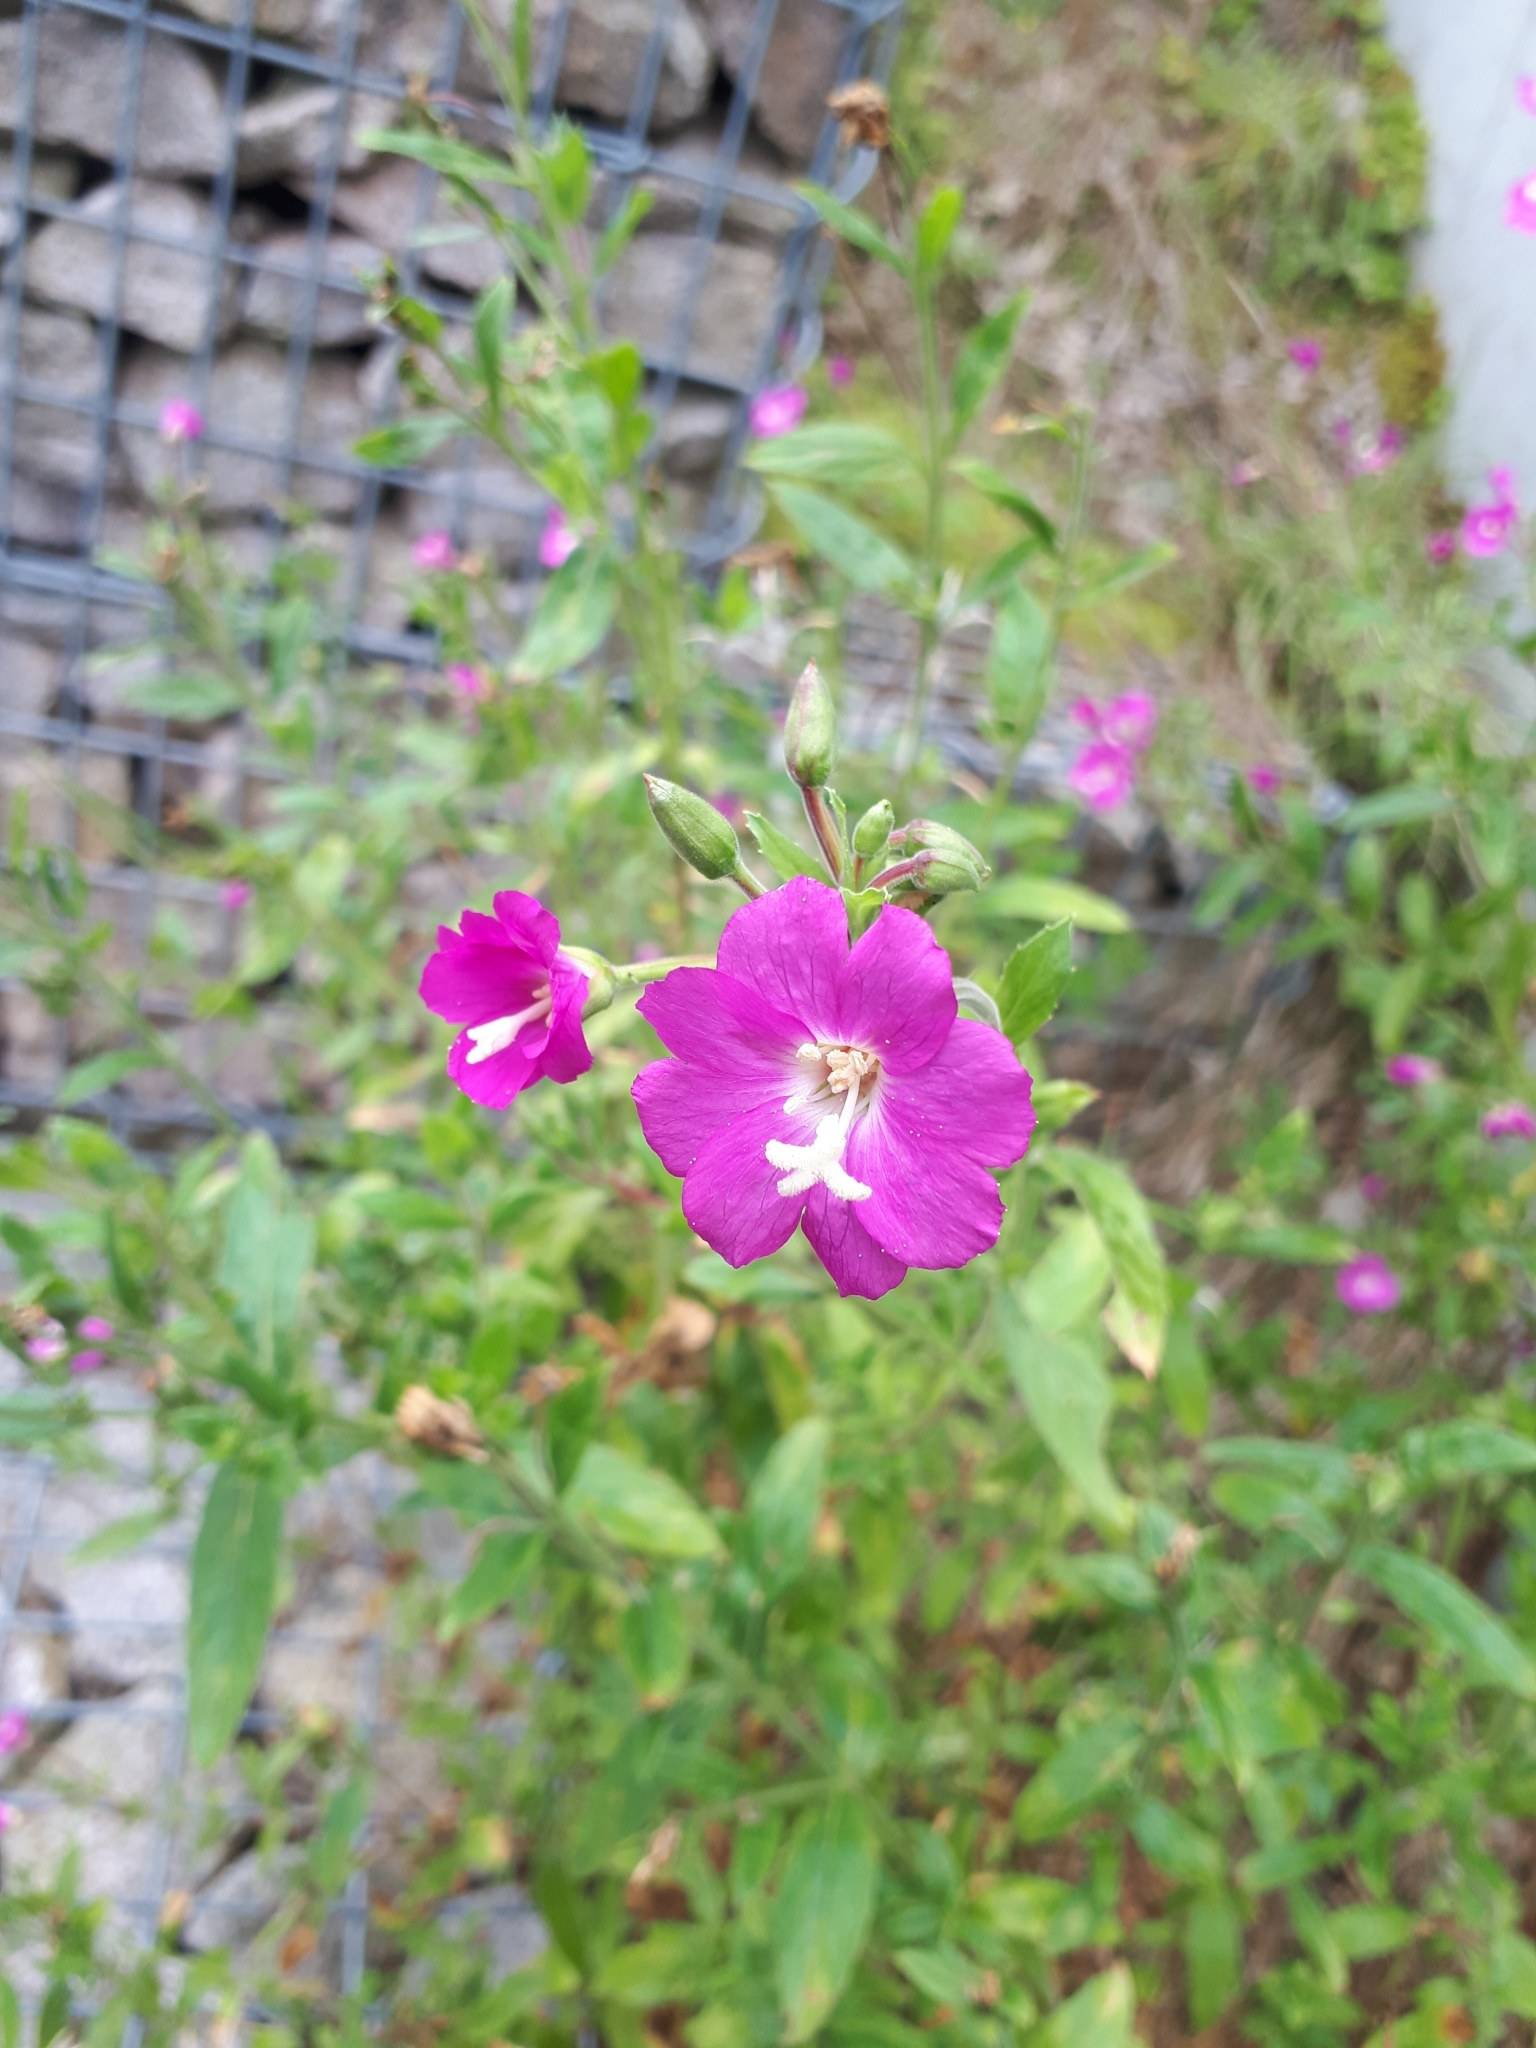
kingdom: Plantae
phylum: Tracheophyta
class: Magnoliopsida
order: Myrtales
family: Onagraceae
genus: Epilobium
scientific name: Epilobium hirsutum
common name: Great willowherb
